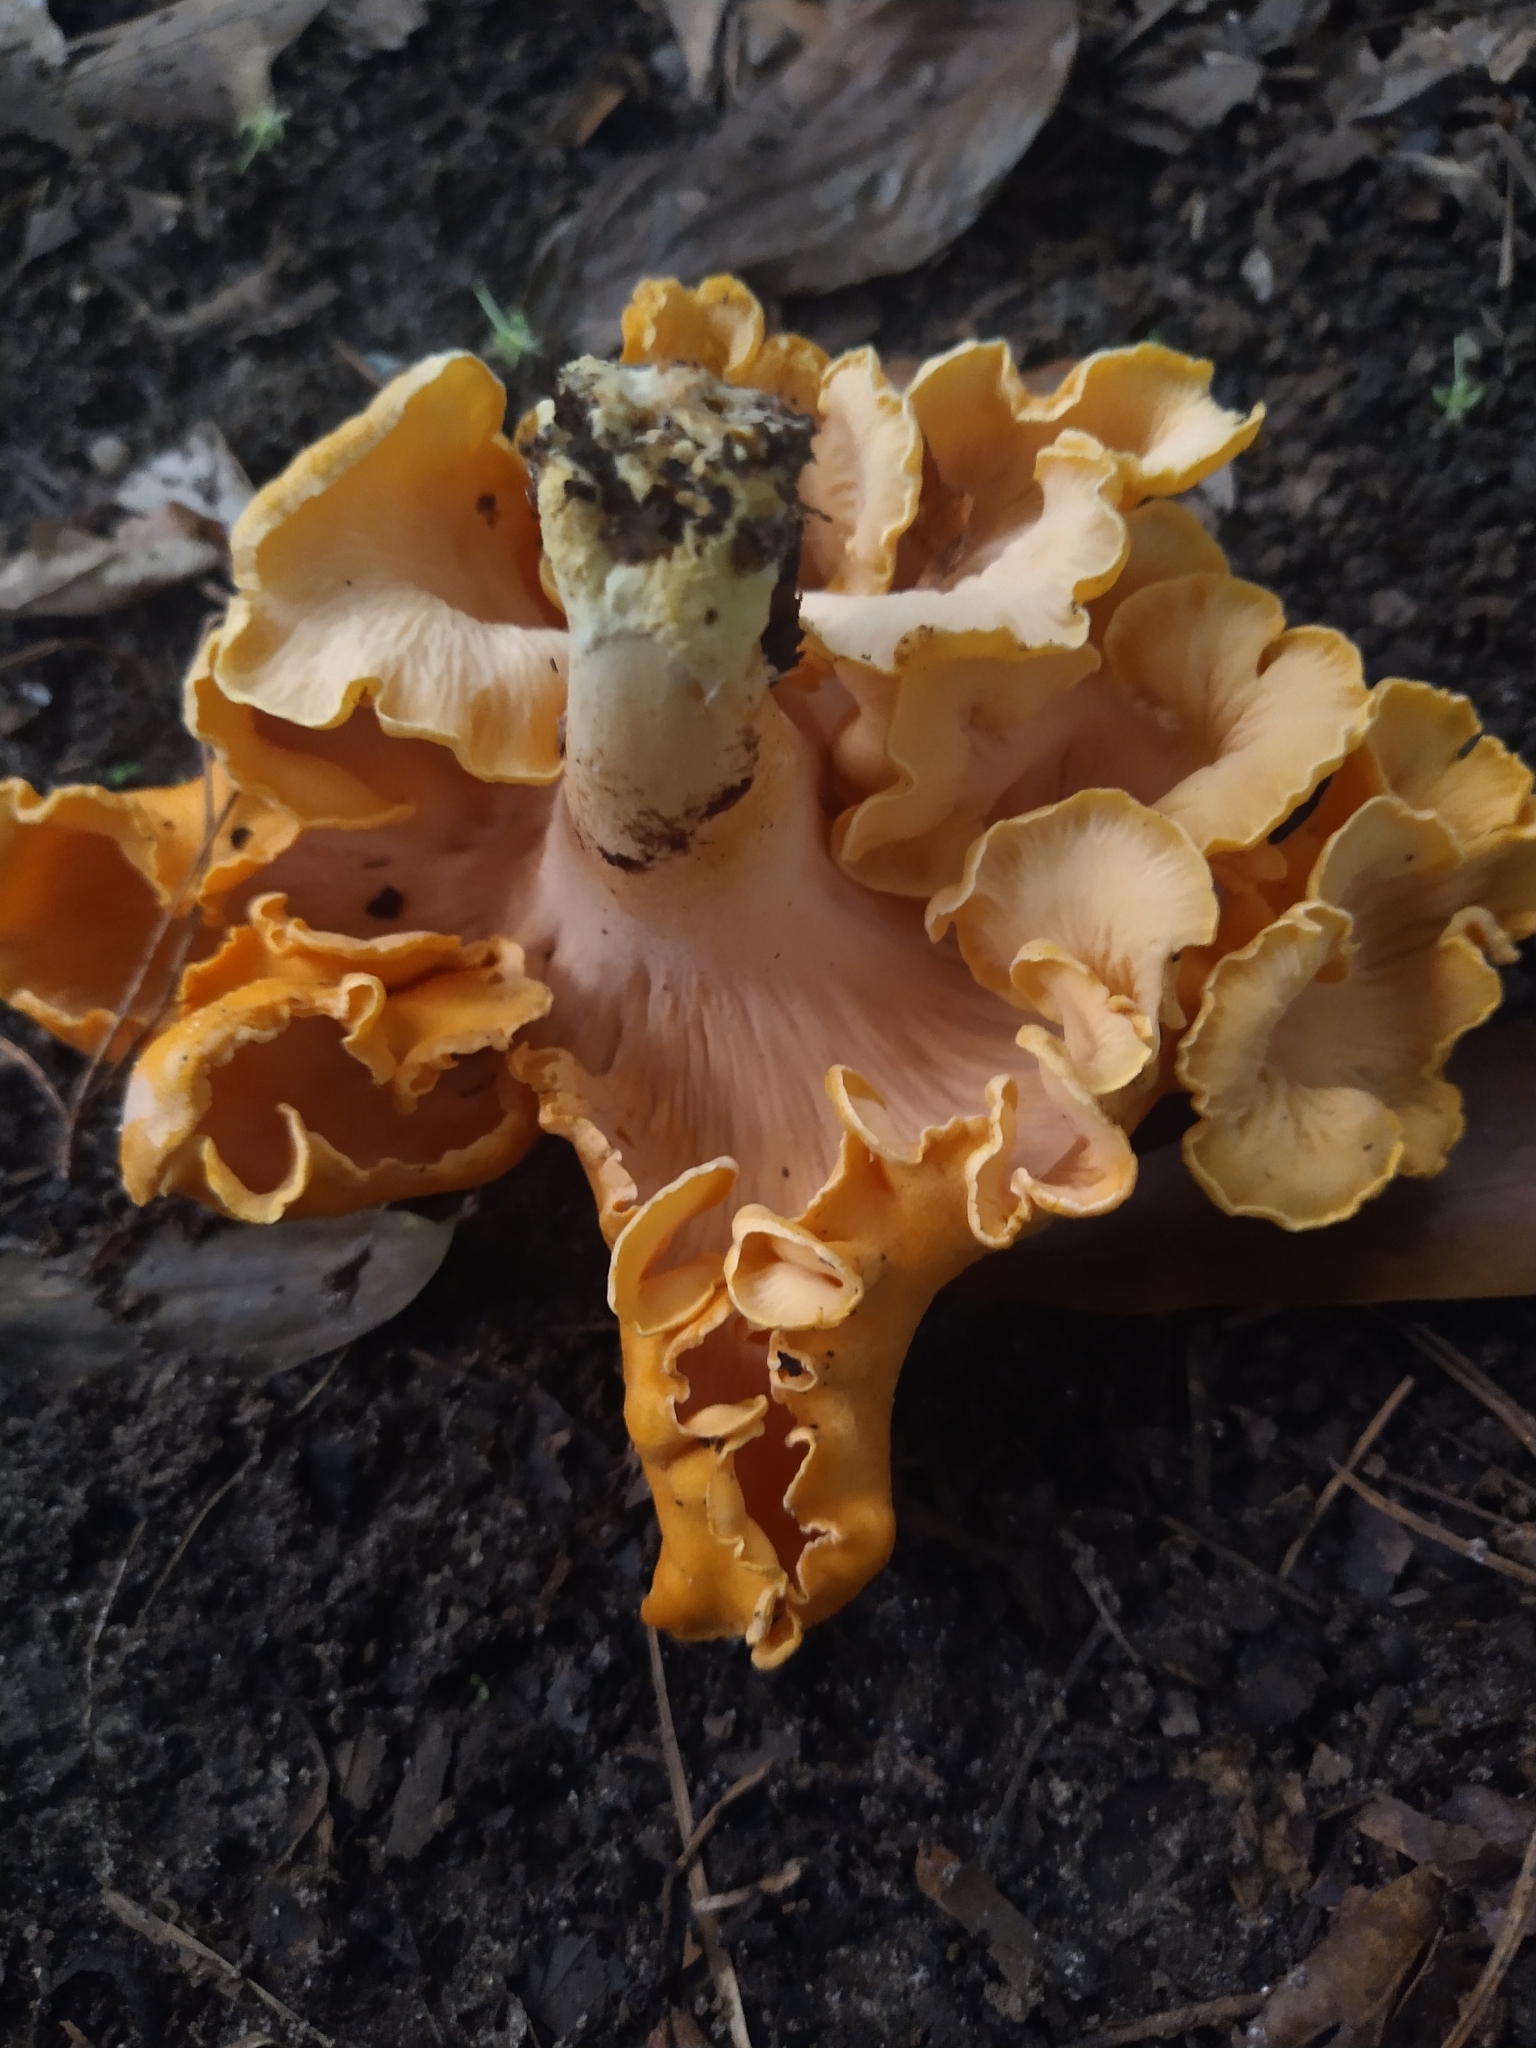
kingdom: Fungi
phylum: Basidiomycota
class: Agaricomycetes
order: Cantharellales
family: Hydnaceae
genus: Cantharellus
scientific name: Cantharellus lateritius
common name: Smooth chanterelle
